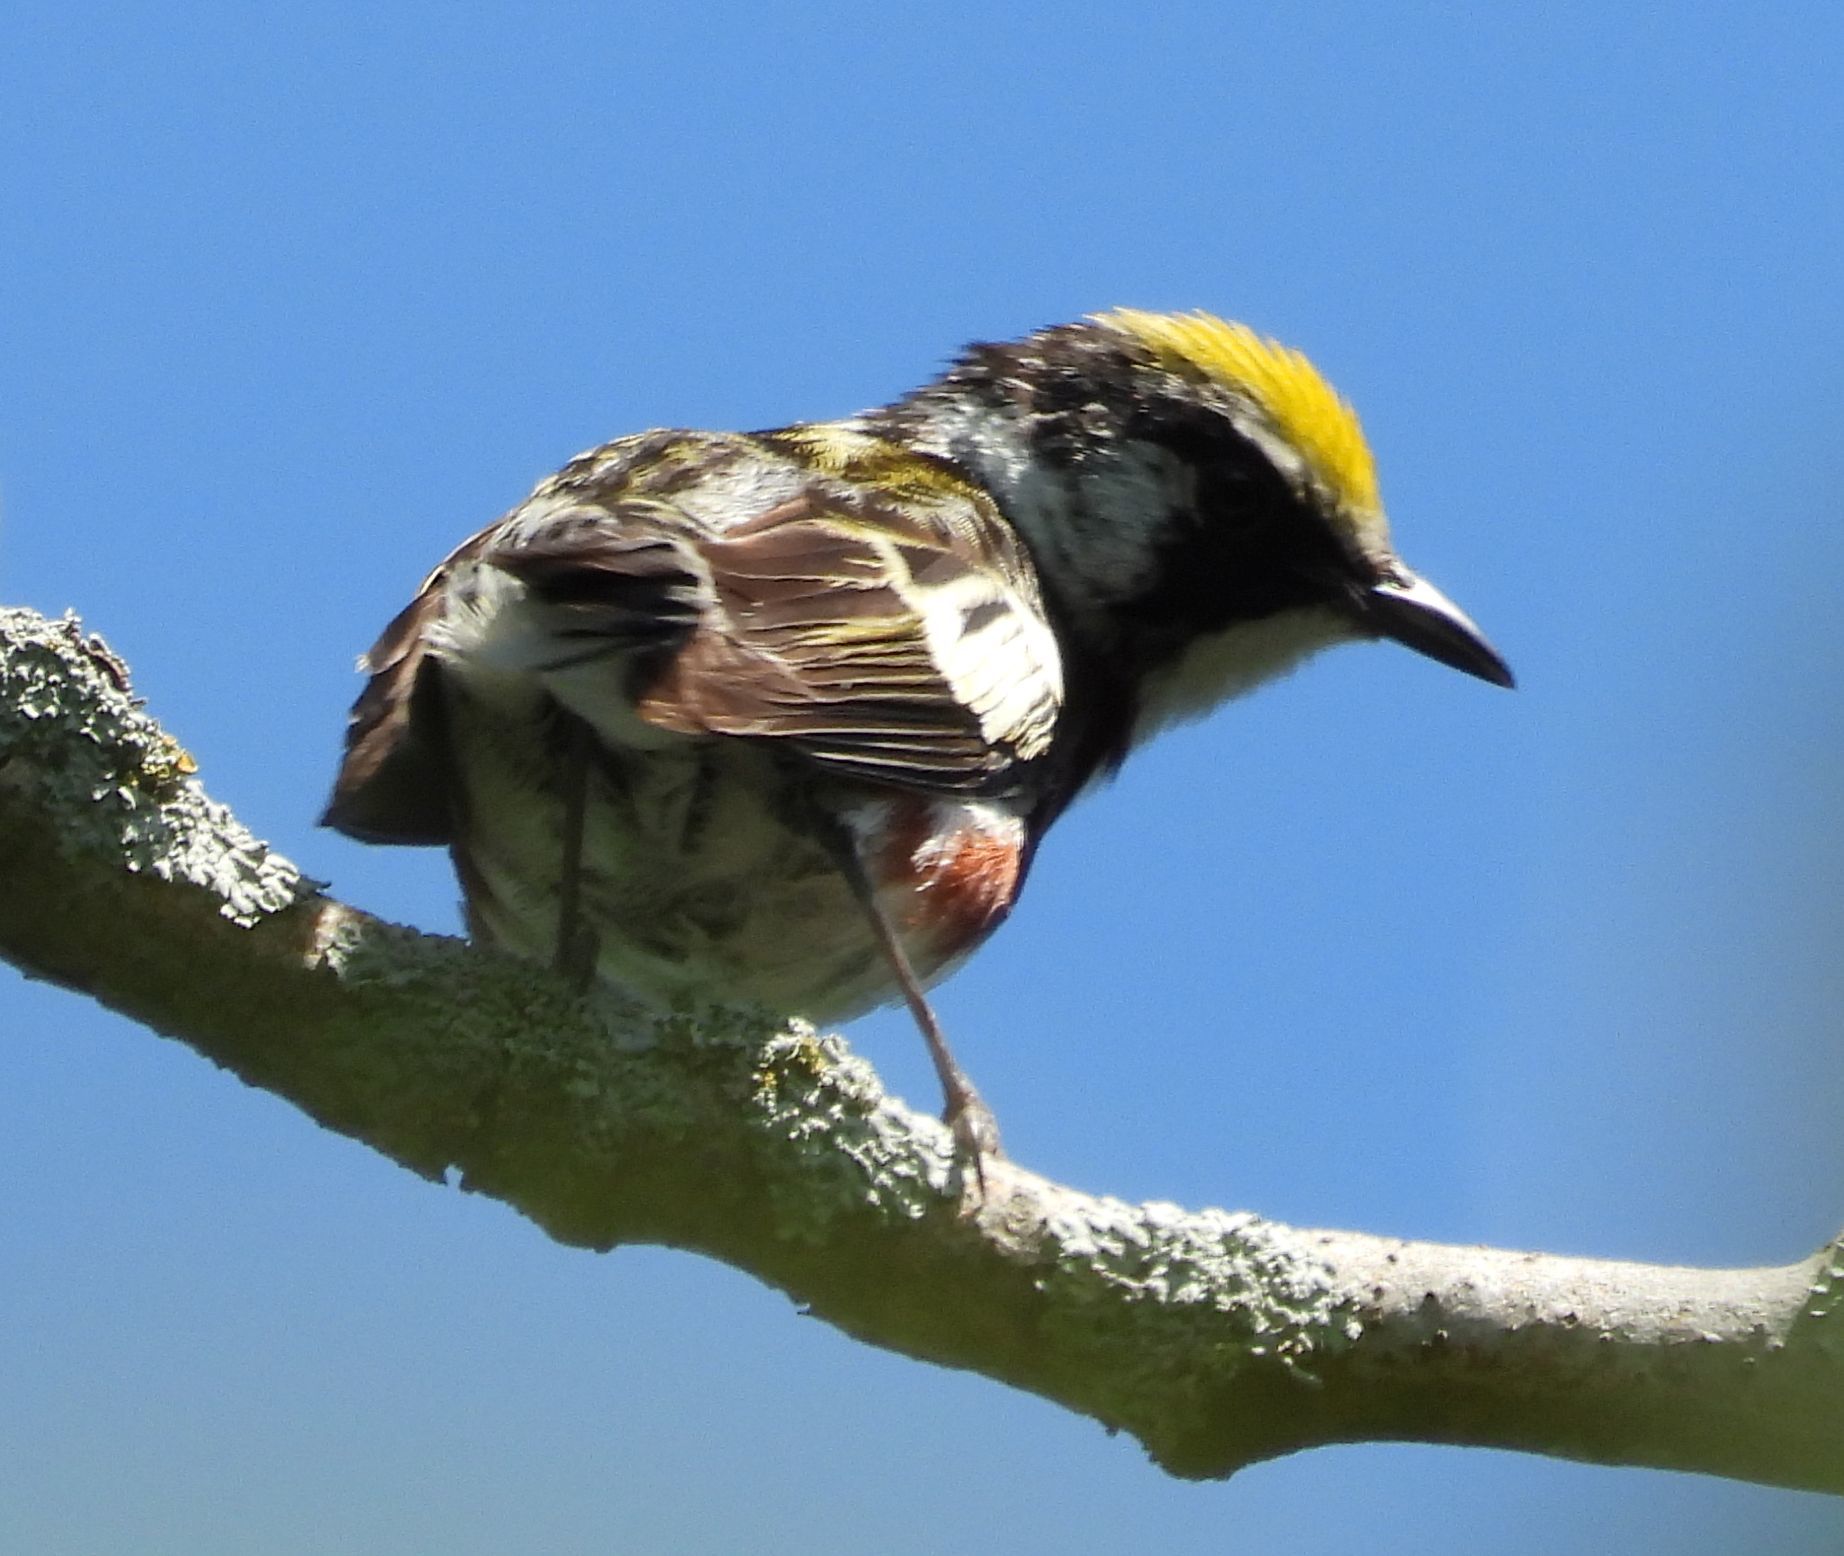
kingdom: Animalia
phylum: Chordata
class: Aves
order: Passeriformes
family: Parulidae
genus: Setophaga
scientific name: Setophaga pensylvanica
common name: Chestnut-sided warbler
